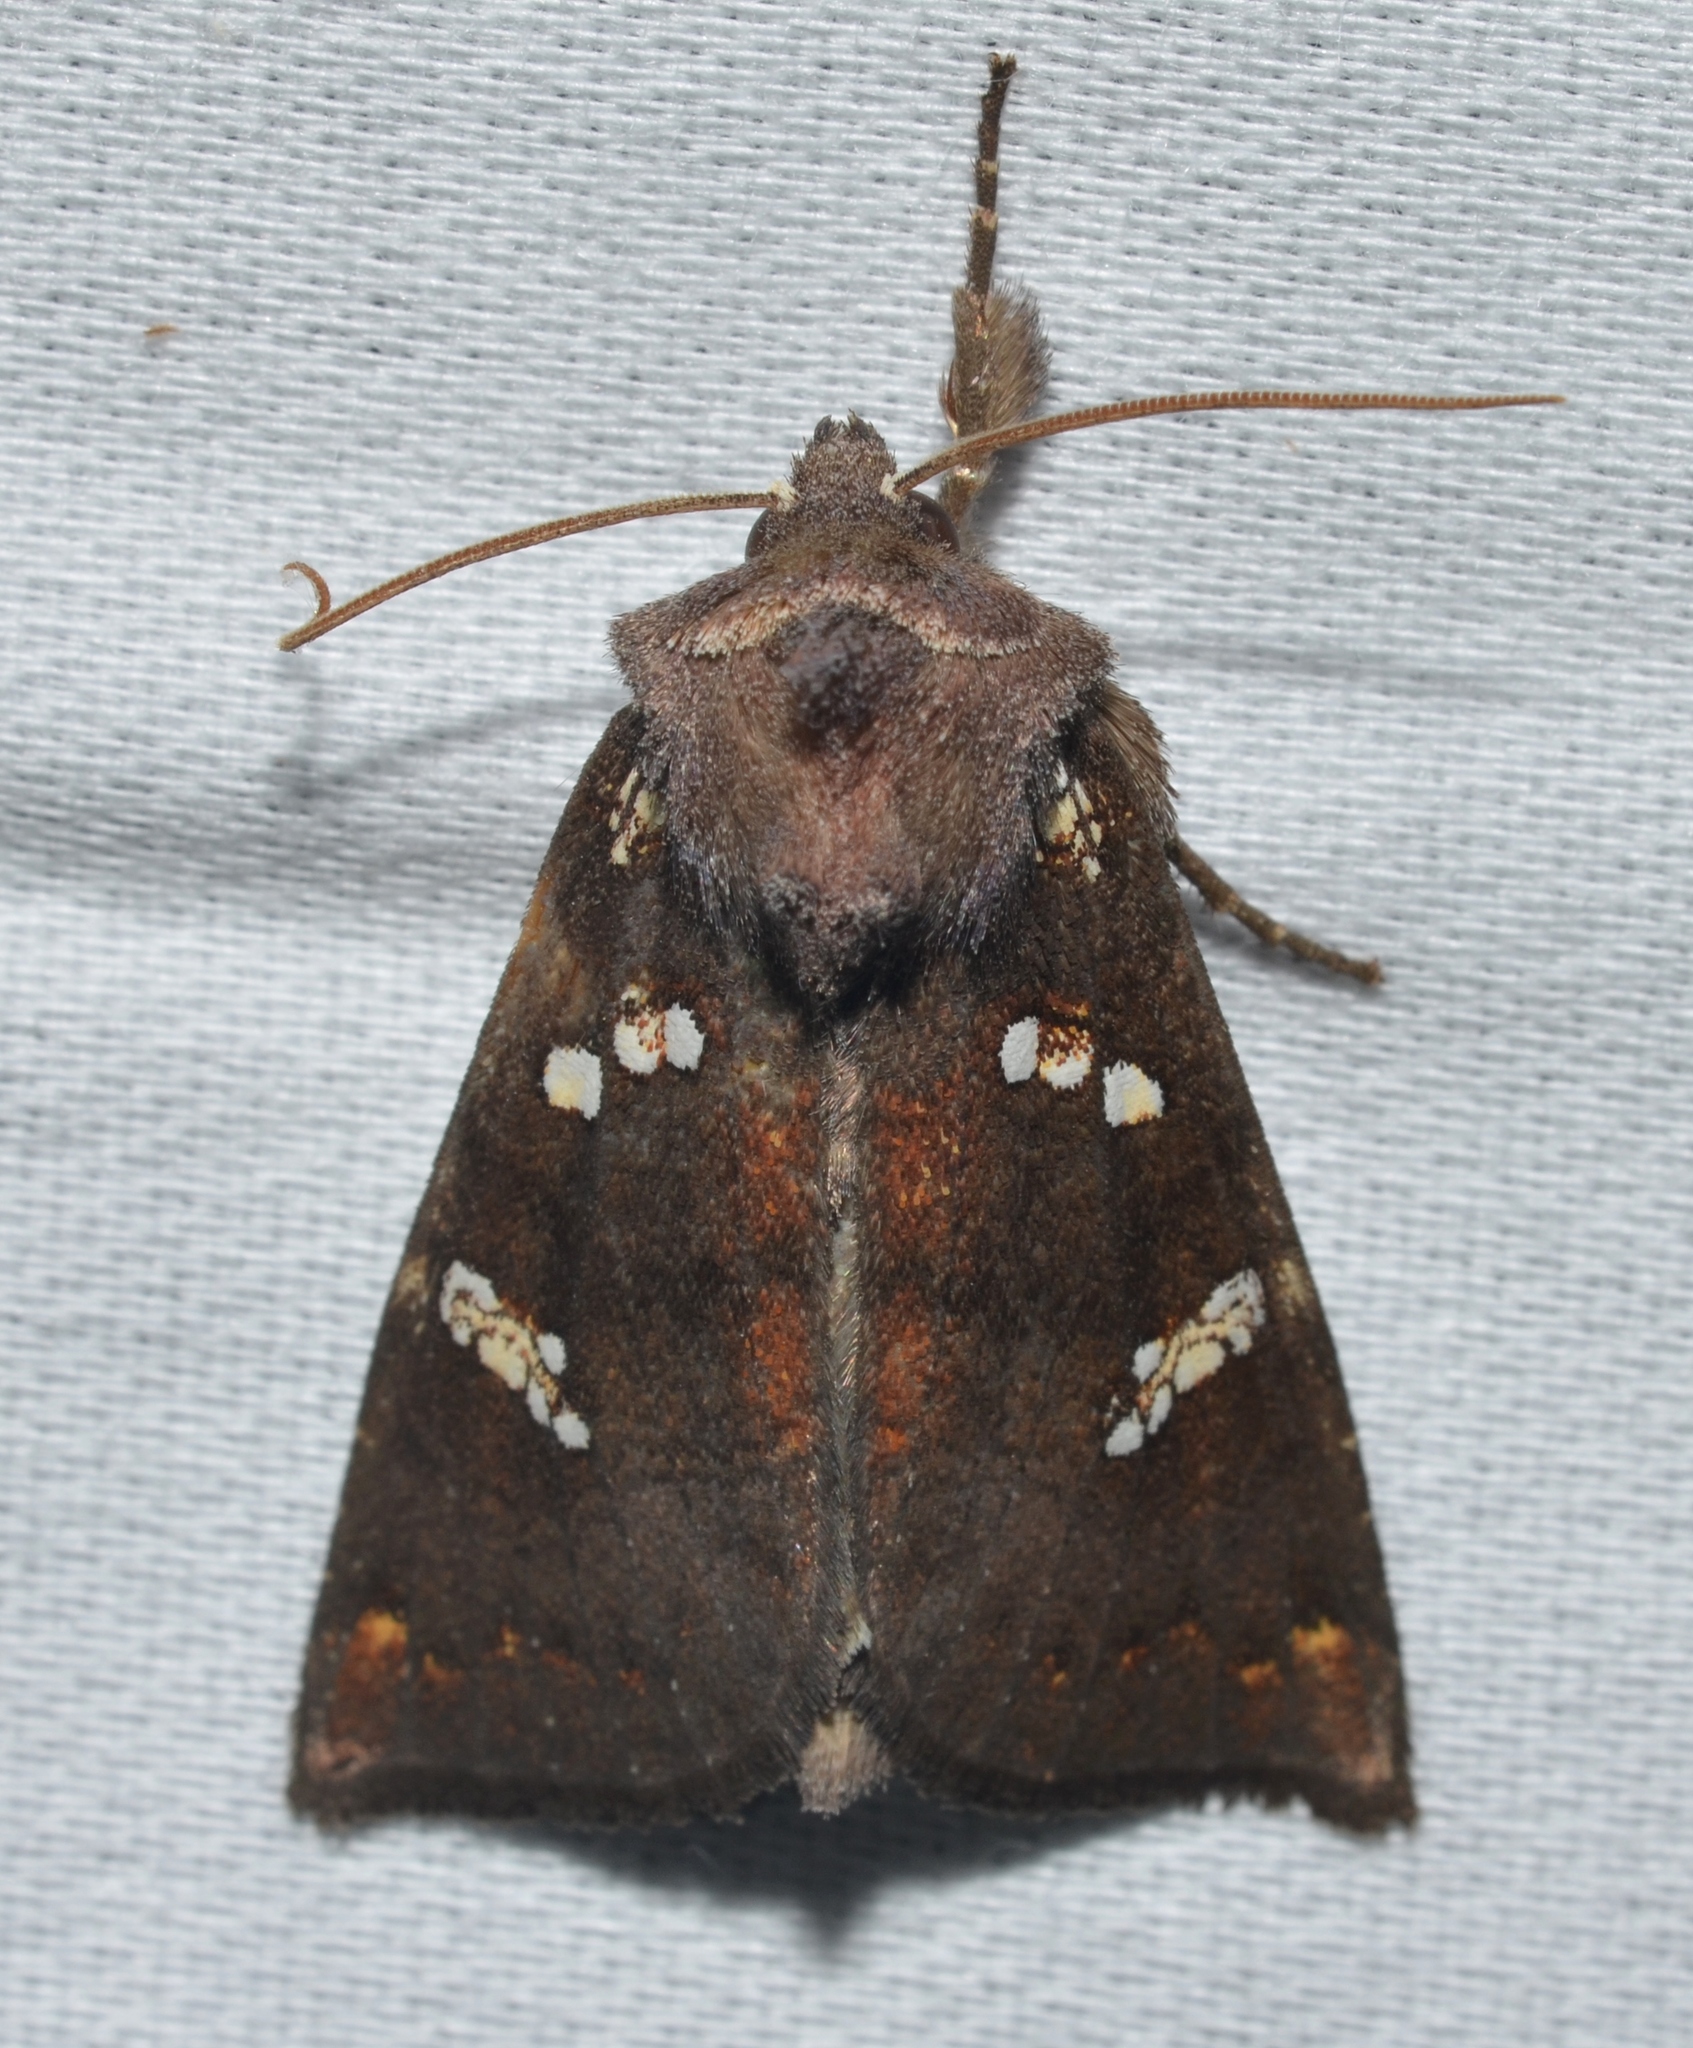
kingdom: Animalia
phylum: Arthropoda
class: Insecta
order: Lepidoptera
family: Noctuidae
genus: Papaipema
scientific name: Papaipema cerussata
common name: Ironweed borer moth
